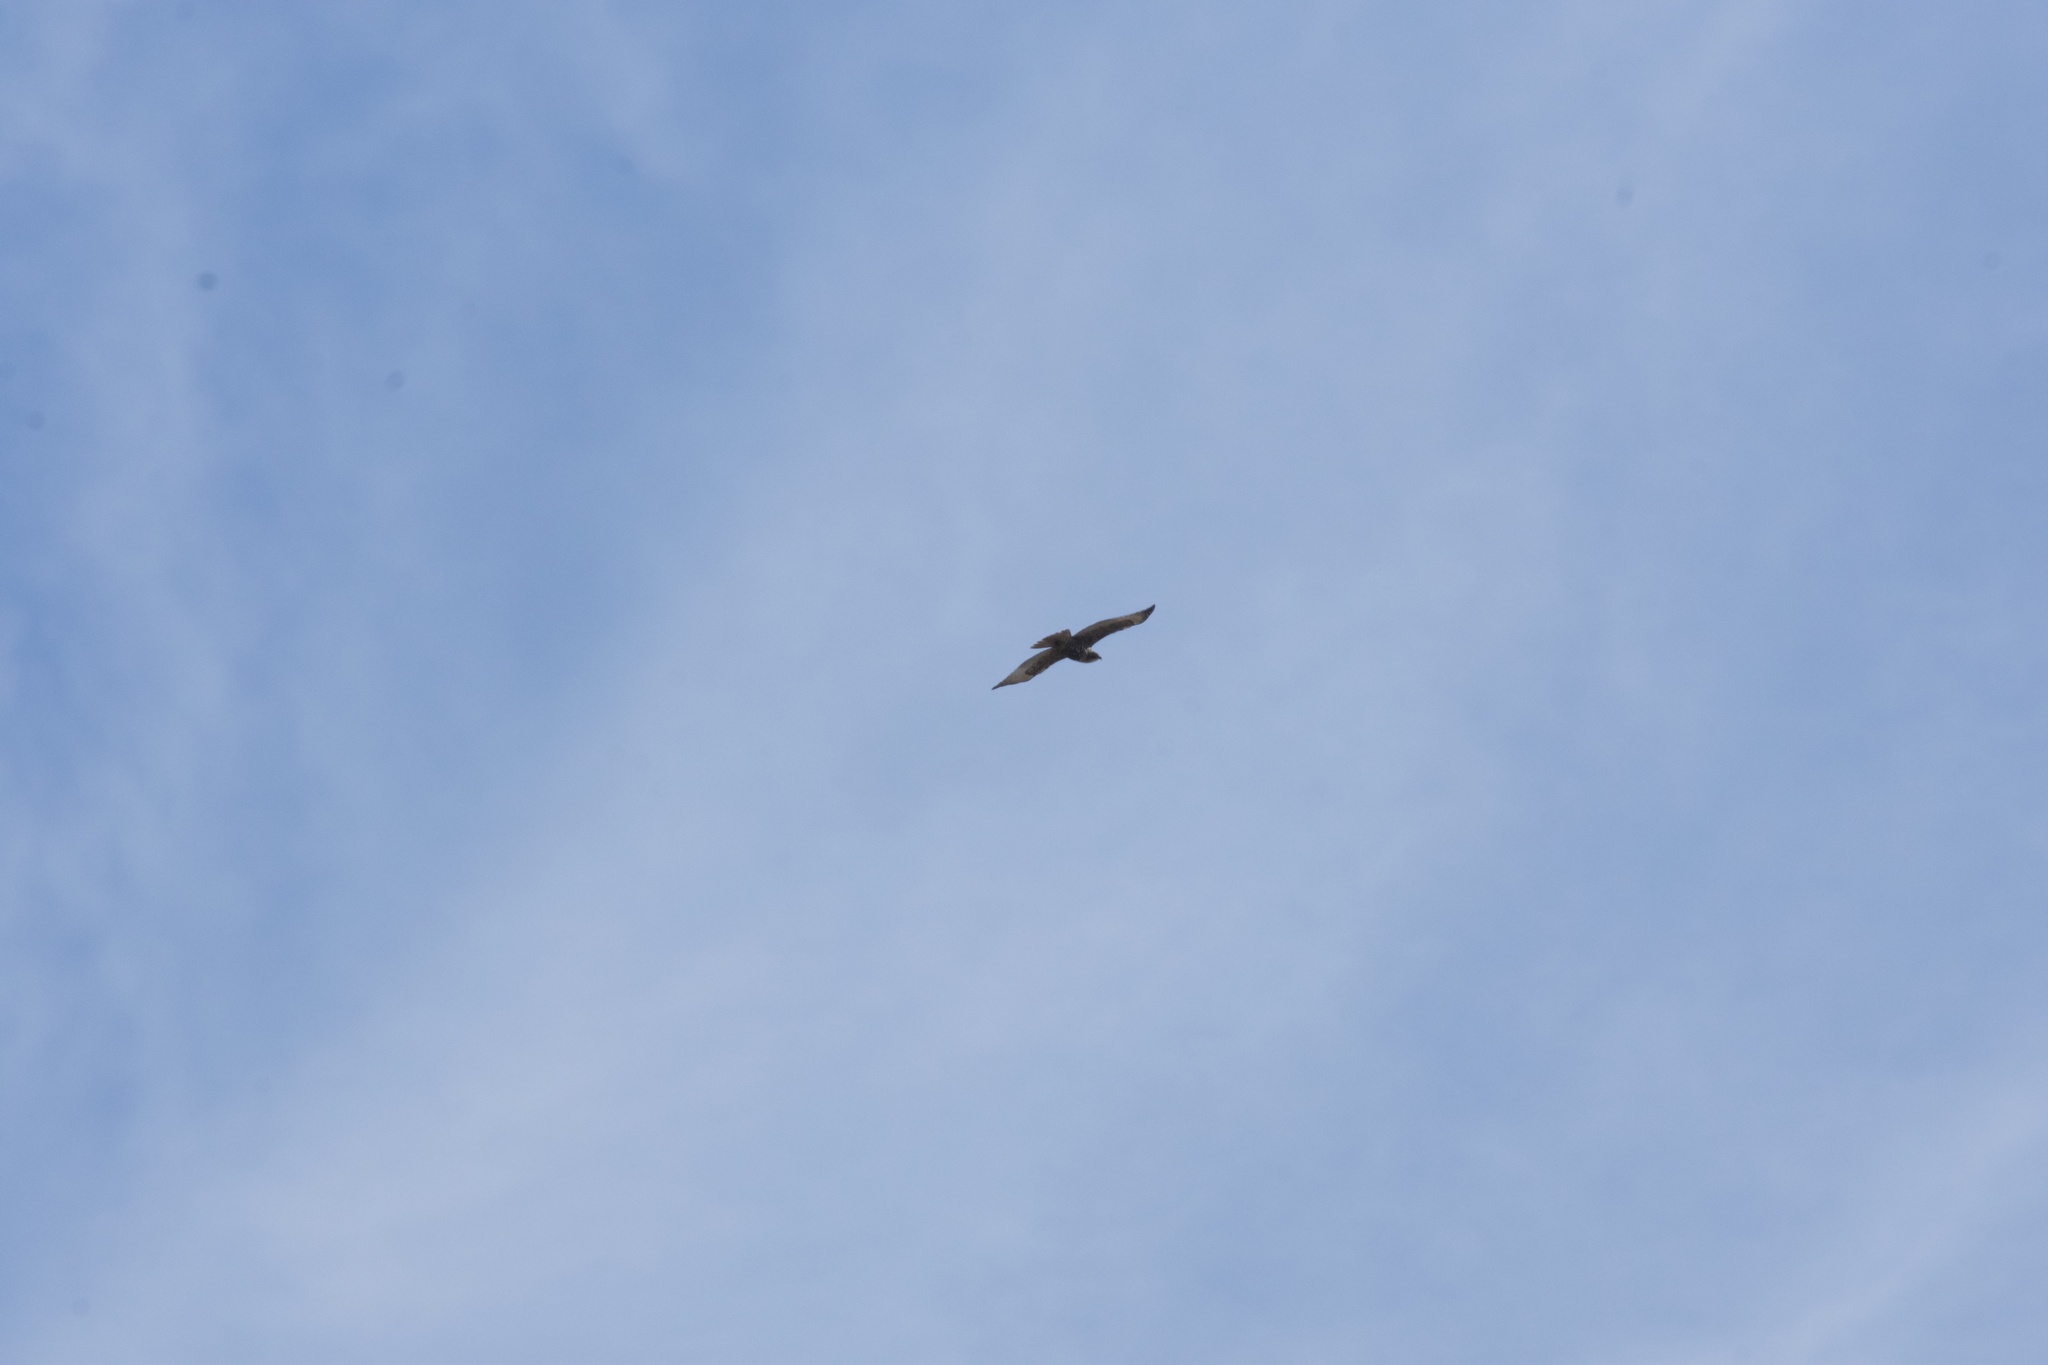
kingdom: Animalia
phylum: Chordata
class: Aves
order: Accipitriformes
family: Accipitridae
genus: Buteo
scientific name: Buteo jamaicensis
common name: Red-tailed hawk
